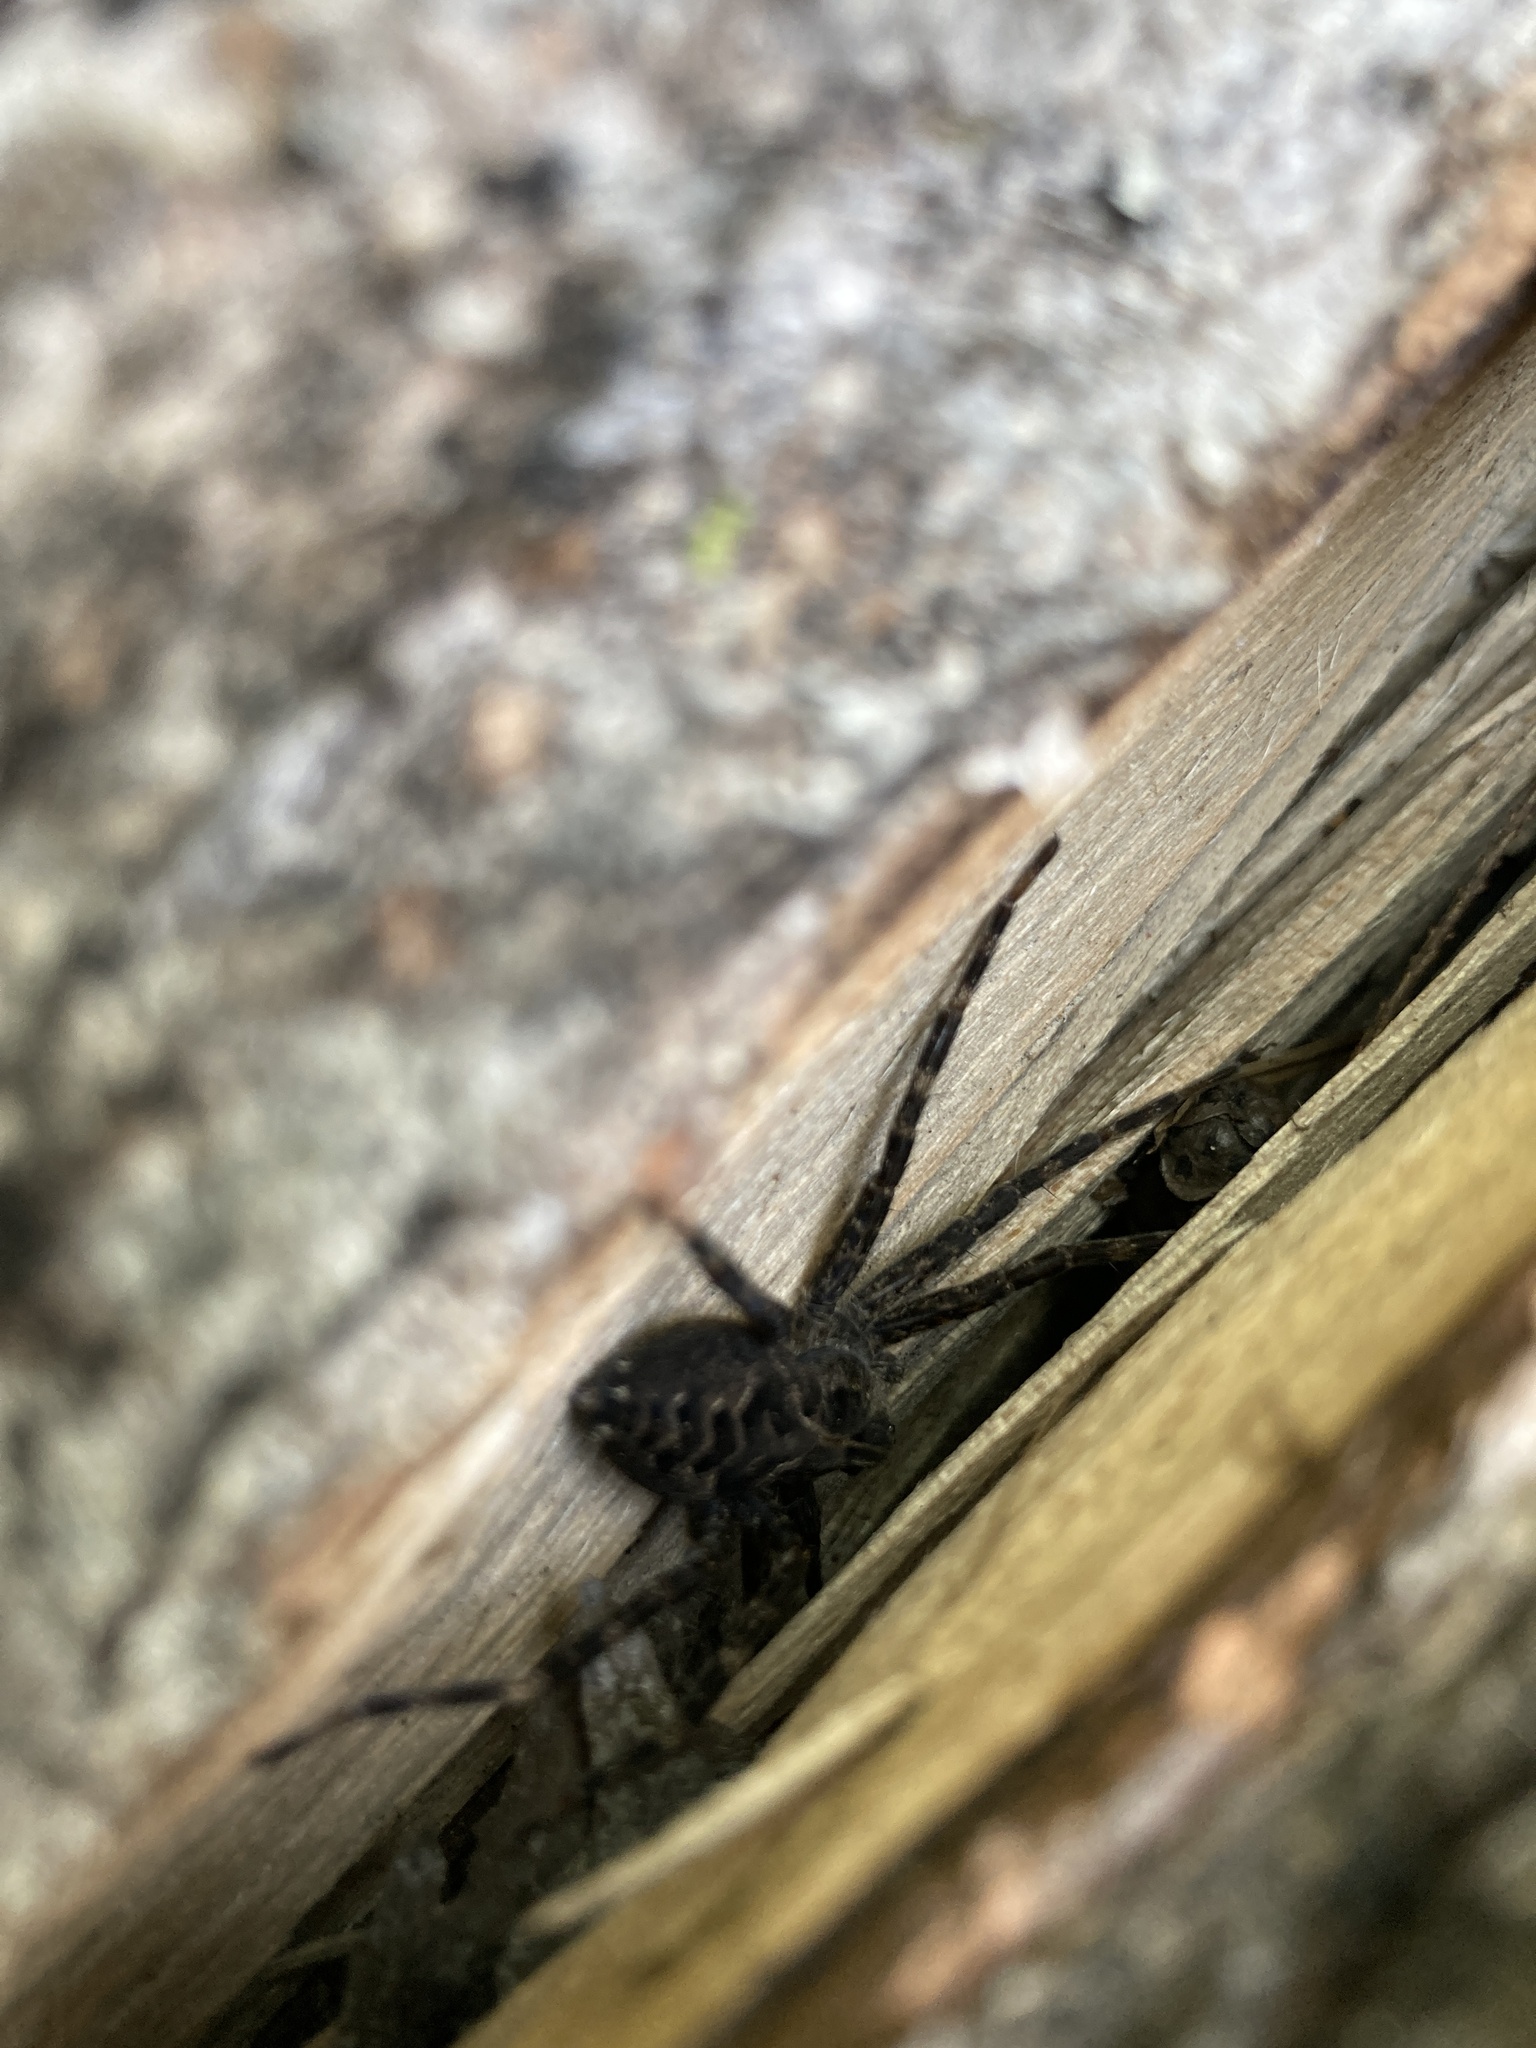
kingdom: Animalia
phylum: Arthropoda
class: Arachnida
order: Araneae
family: Pisauridae
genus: Dolomedes
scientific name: Dolomedes tenebrosus
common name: Dark fishing spider
